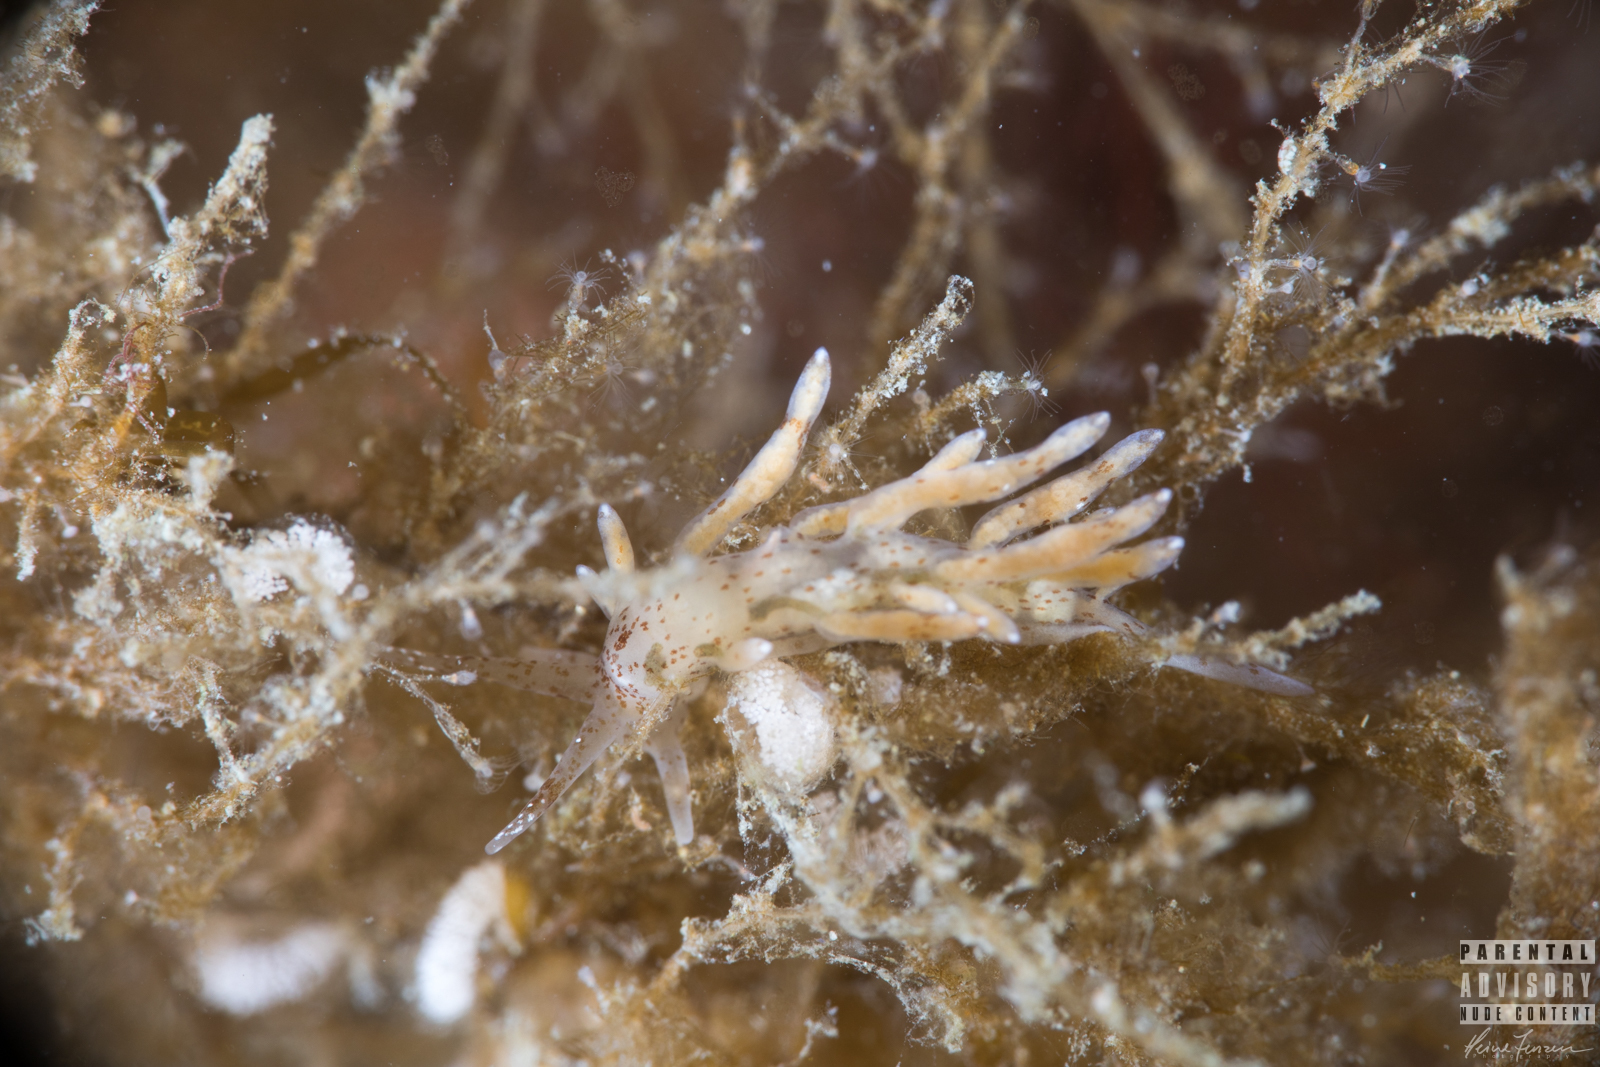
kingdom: Animalia
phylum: Mollusca
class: Gastropoda
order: Nudibranchia
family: Eubranchidae
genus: Eubranchus
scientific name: Eubranchus rupium
